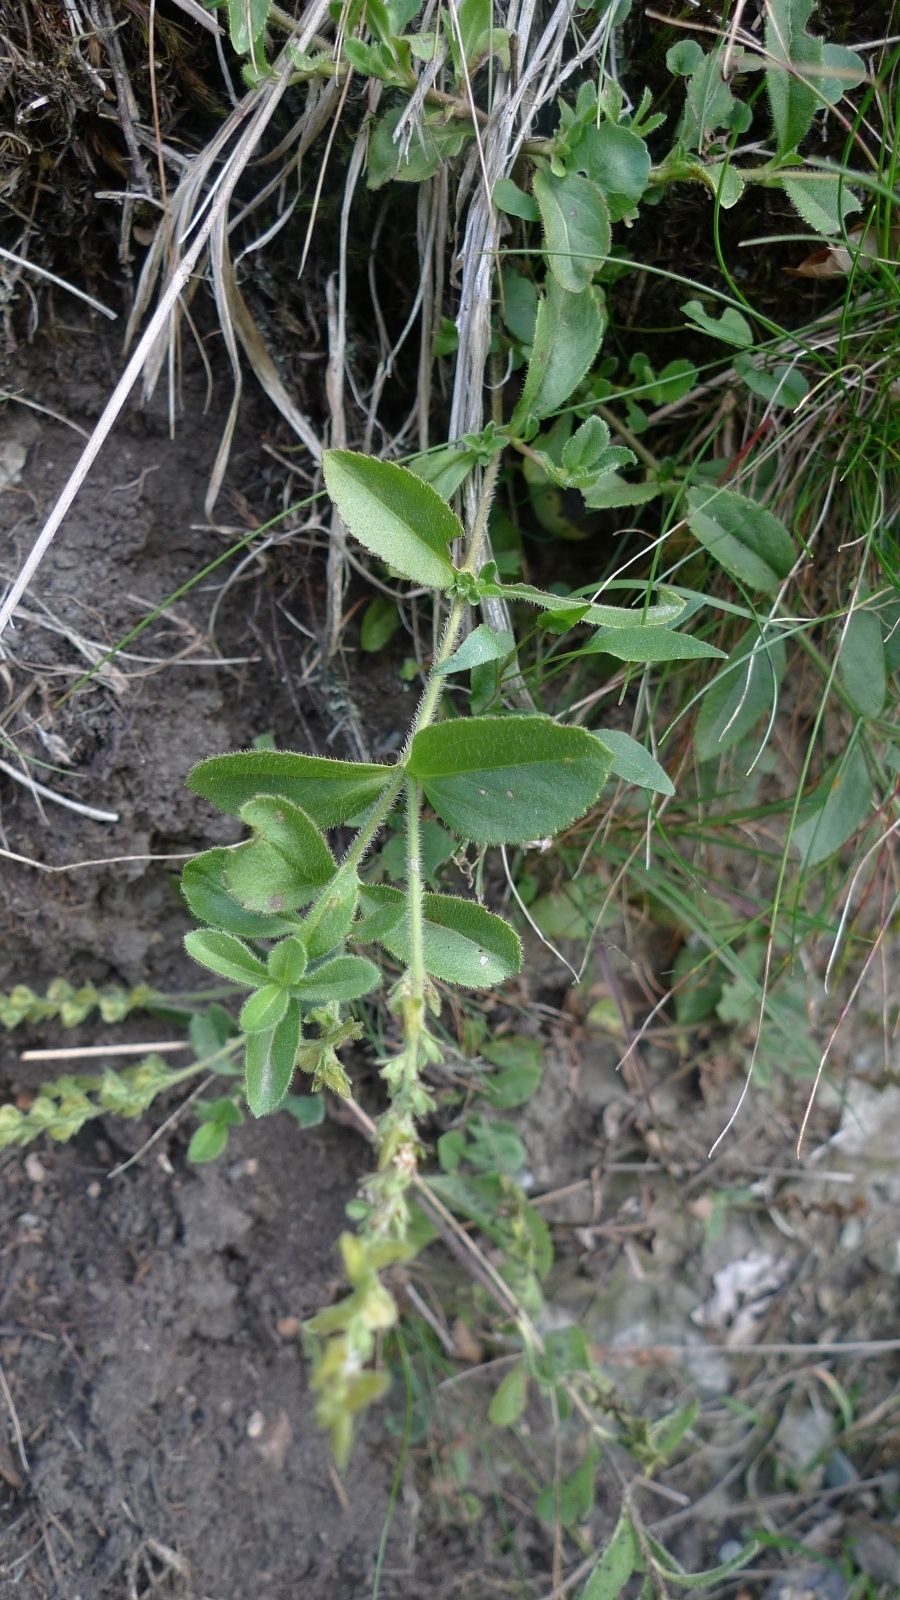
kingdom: Plantae
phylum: Tracheophyta
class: Magnoliopsida
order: Lamiales
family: Plantaginaceae
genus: Veronica
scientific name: Veronica officinalis
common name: Common speedwell
